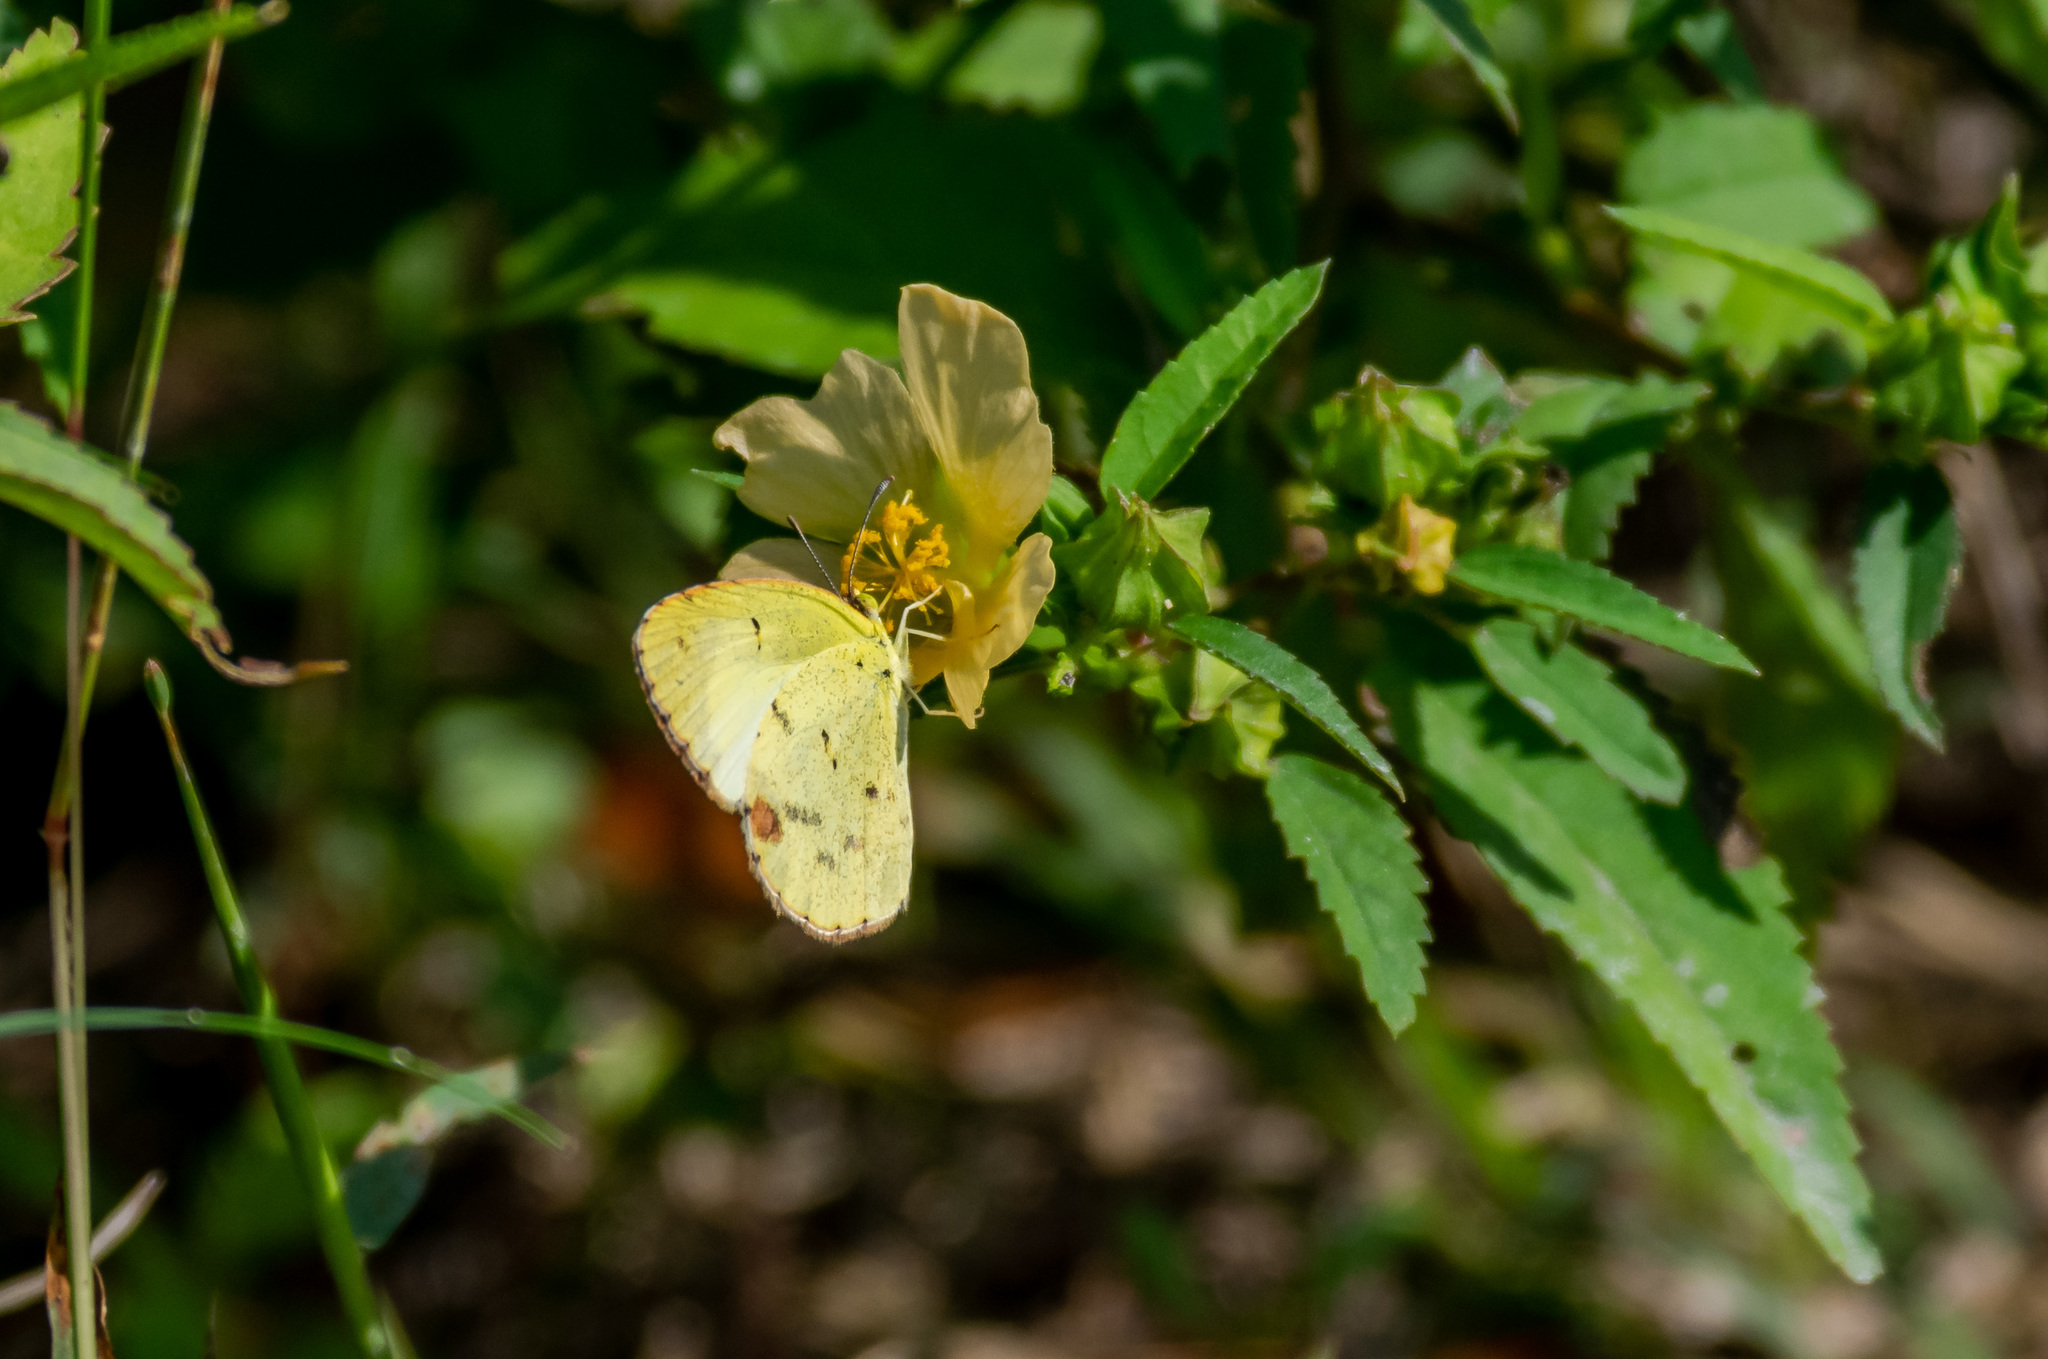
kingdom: Animalia
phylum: Arthropoda
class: Insecta
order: Lepidoptera
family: Pieridae
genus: Pyrisitia
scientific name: Pyrisitia lisa
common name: Little yellow
